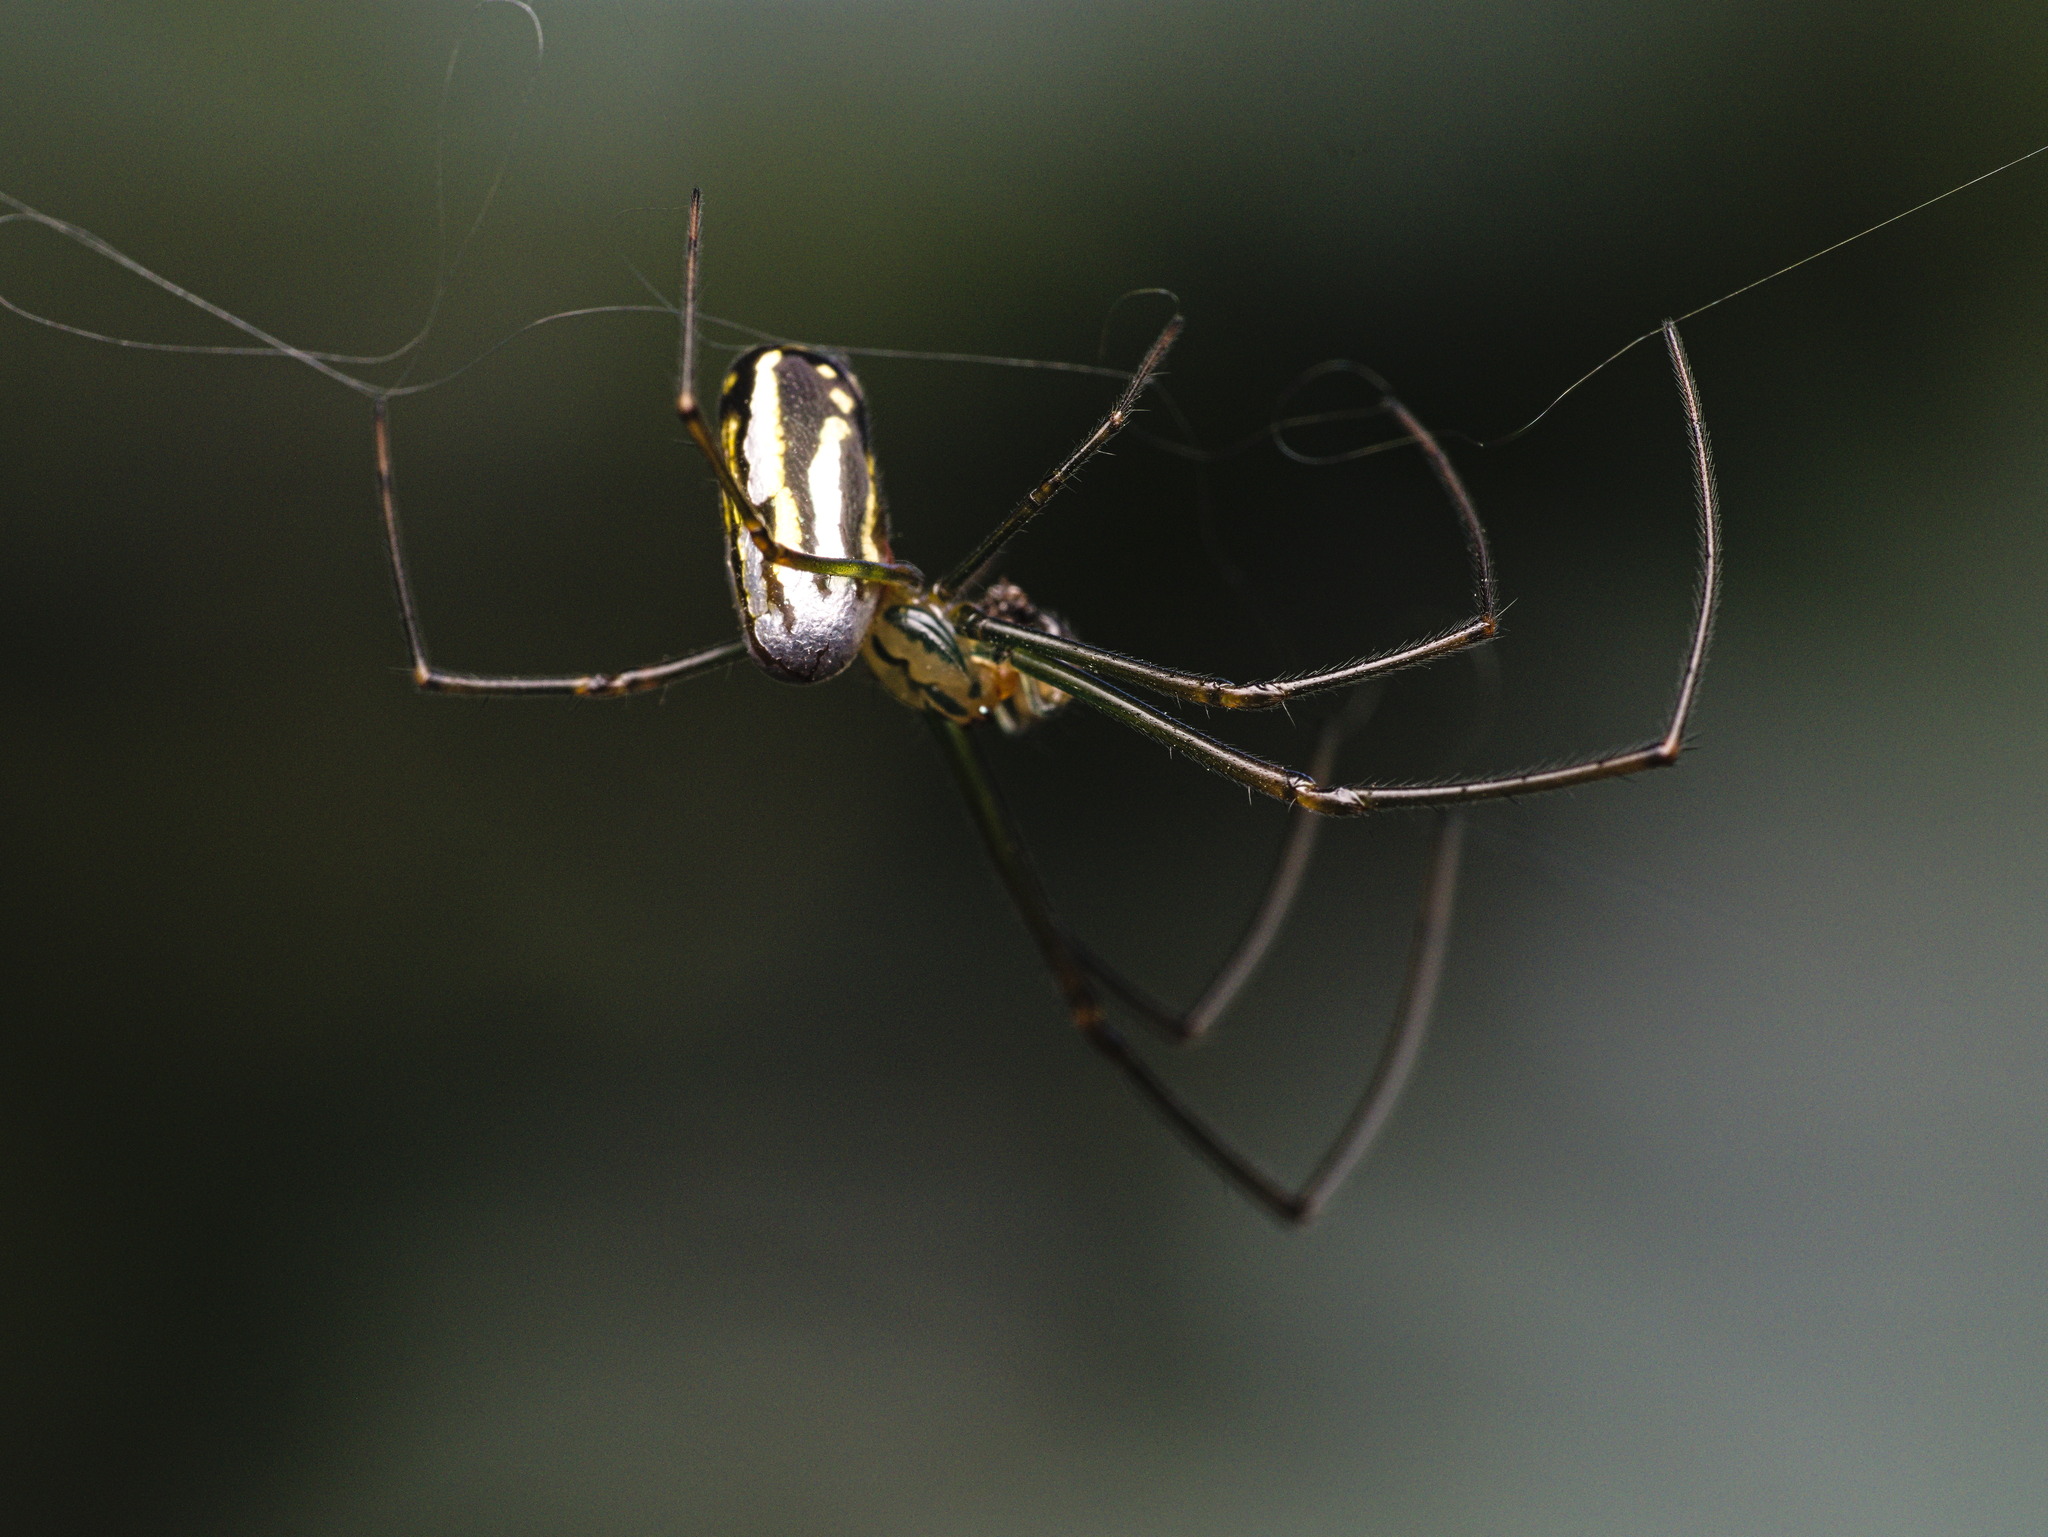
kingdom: Animalia
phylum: Arthropoda
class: Arachnida
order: Araneae
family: Tetragnathidae
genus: Leucauge
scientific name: Leucauge argyra
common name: Longjawed orb weavers
